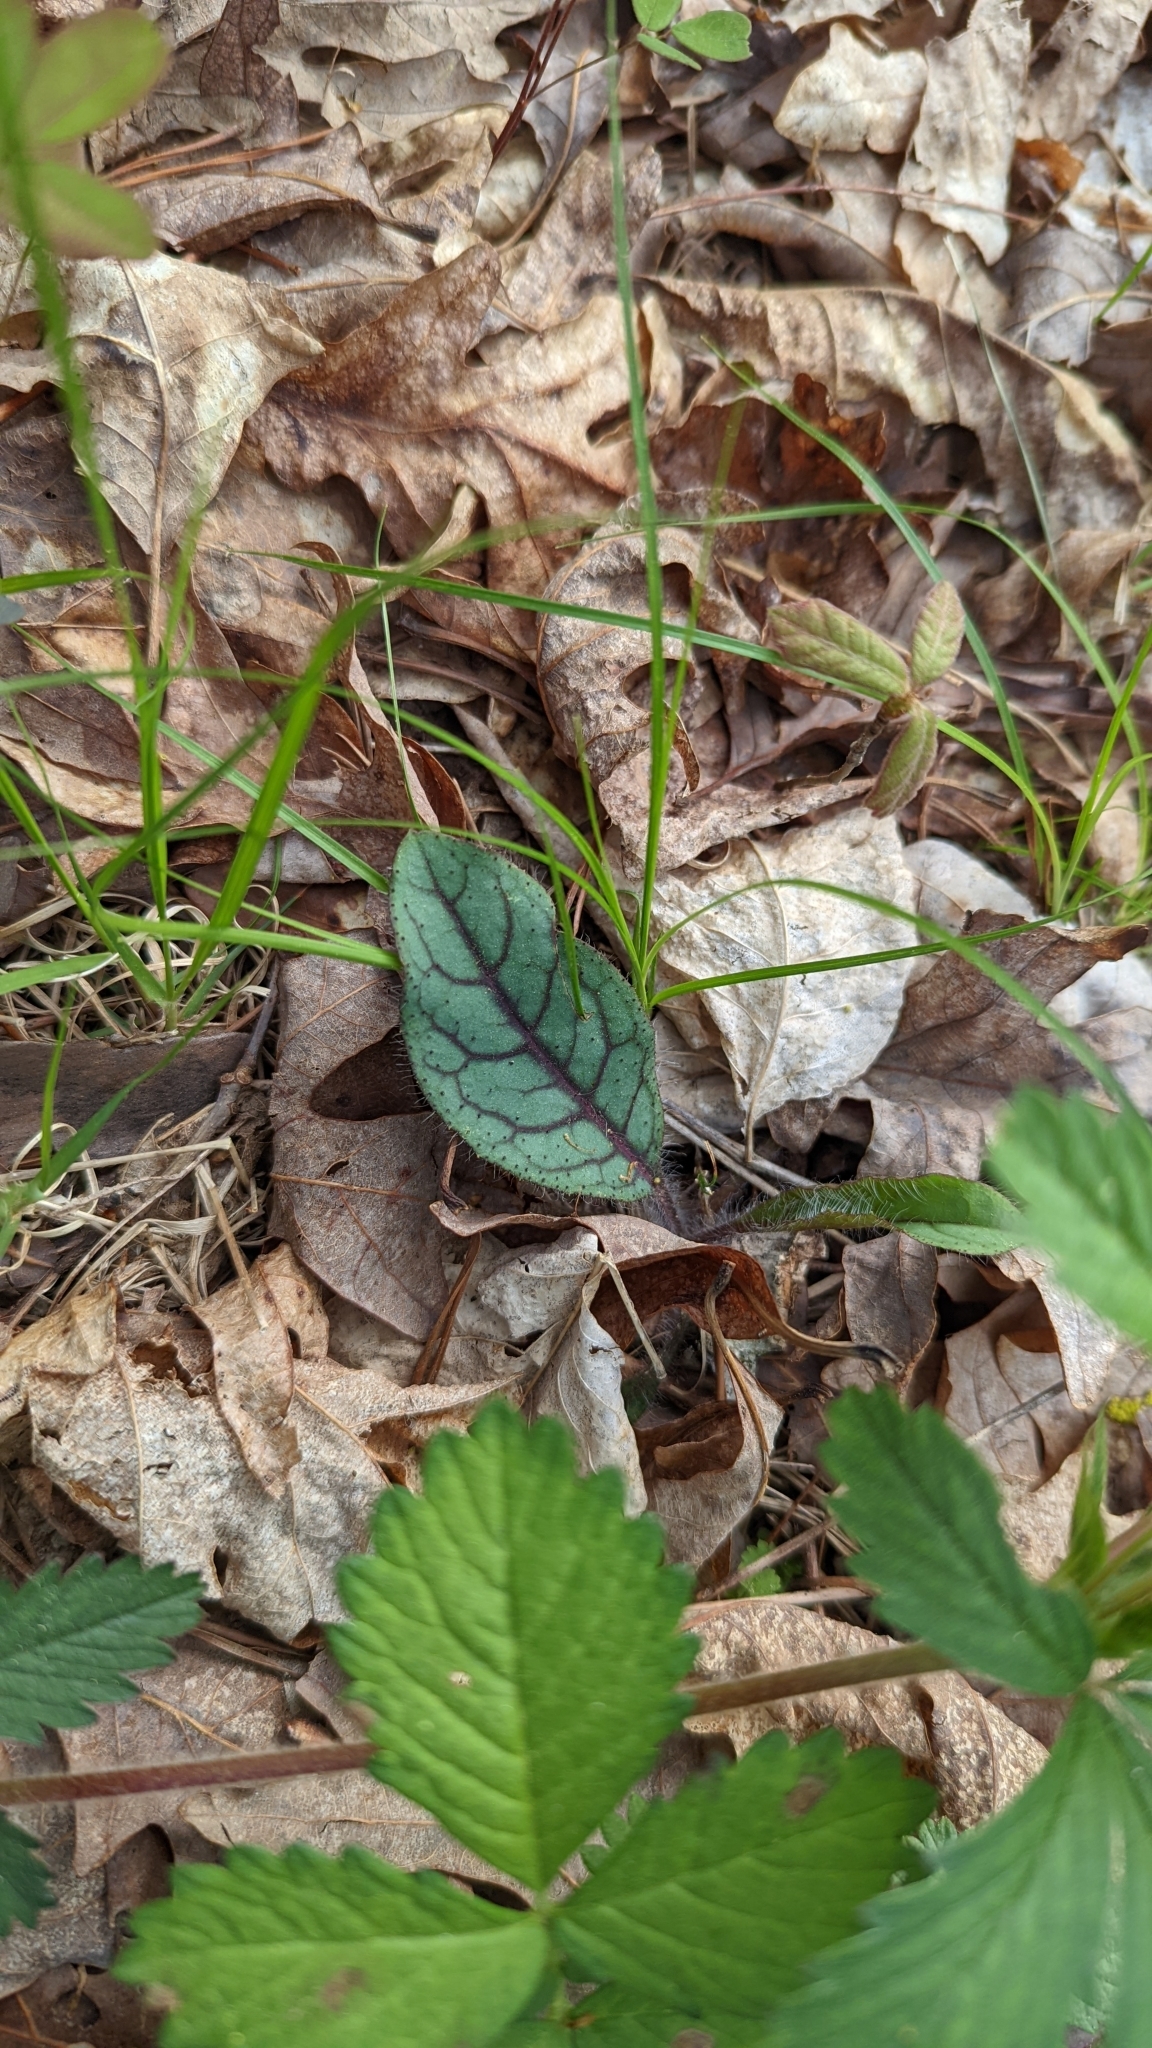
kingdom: Plantae
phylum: Tracheophyta
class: Magnoliopsida
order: Asterales
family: Asteraceae
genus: Hieracium
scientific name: Hieracium venosum
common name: Rattlesnake hawkweed
